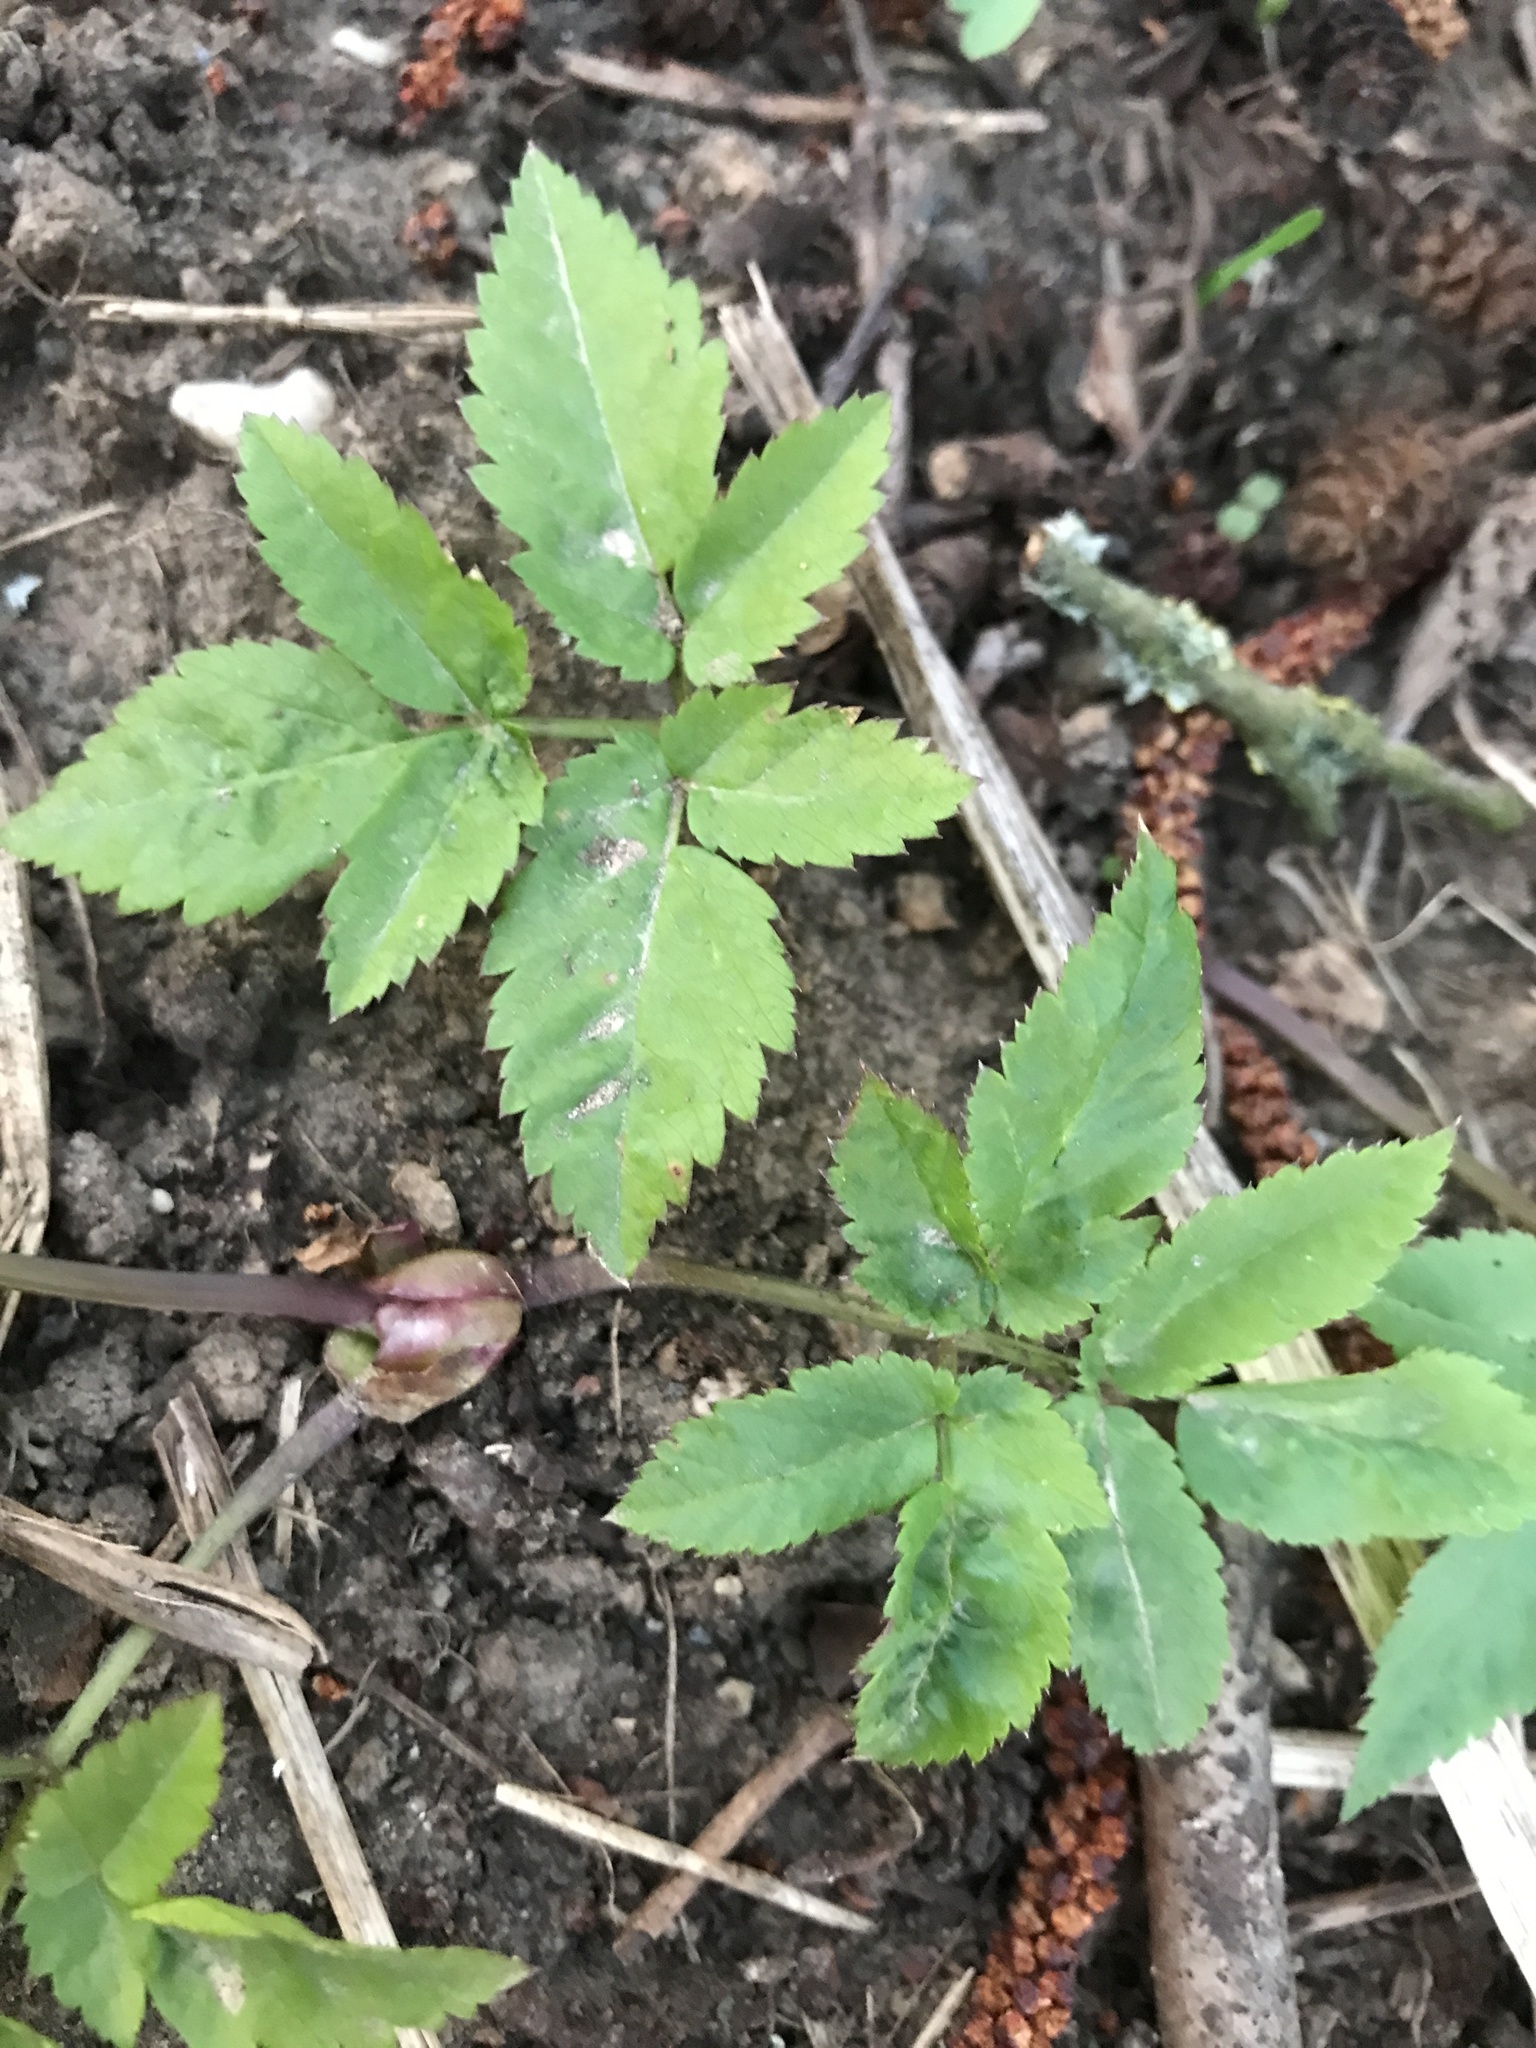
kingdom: Plantae
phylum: Tracheophyta
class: Magnoliopsida
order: Apiales
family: Apiaceae
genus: Aegopodium
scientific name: Aegopodium podagraria
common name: Ground-elder
